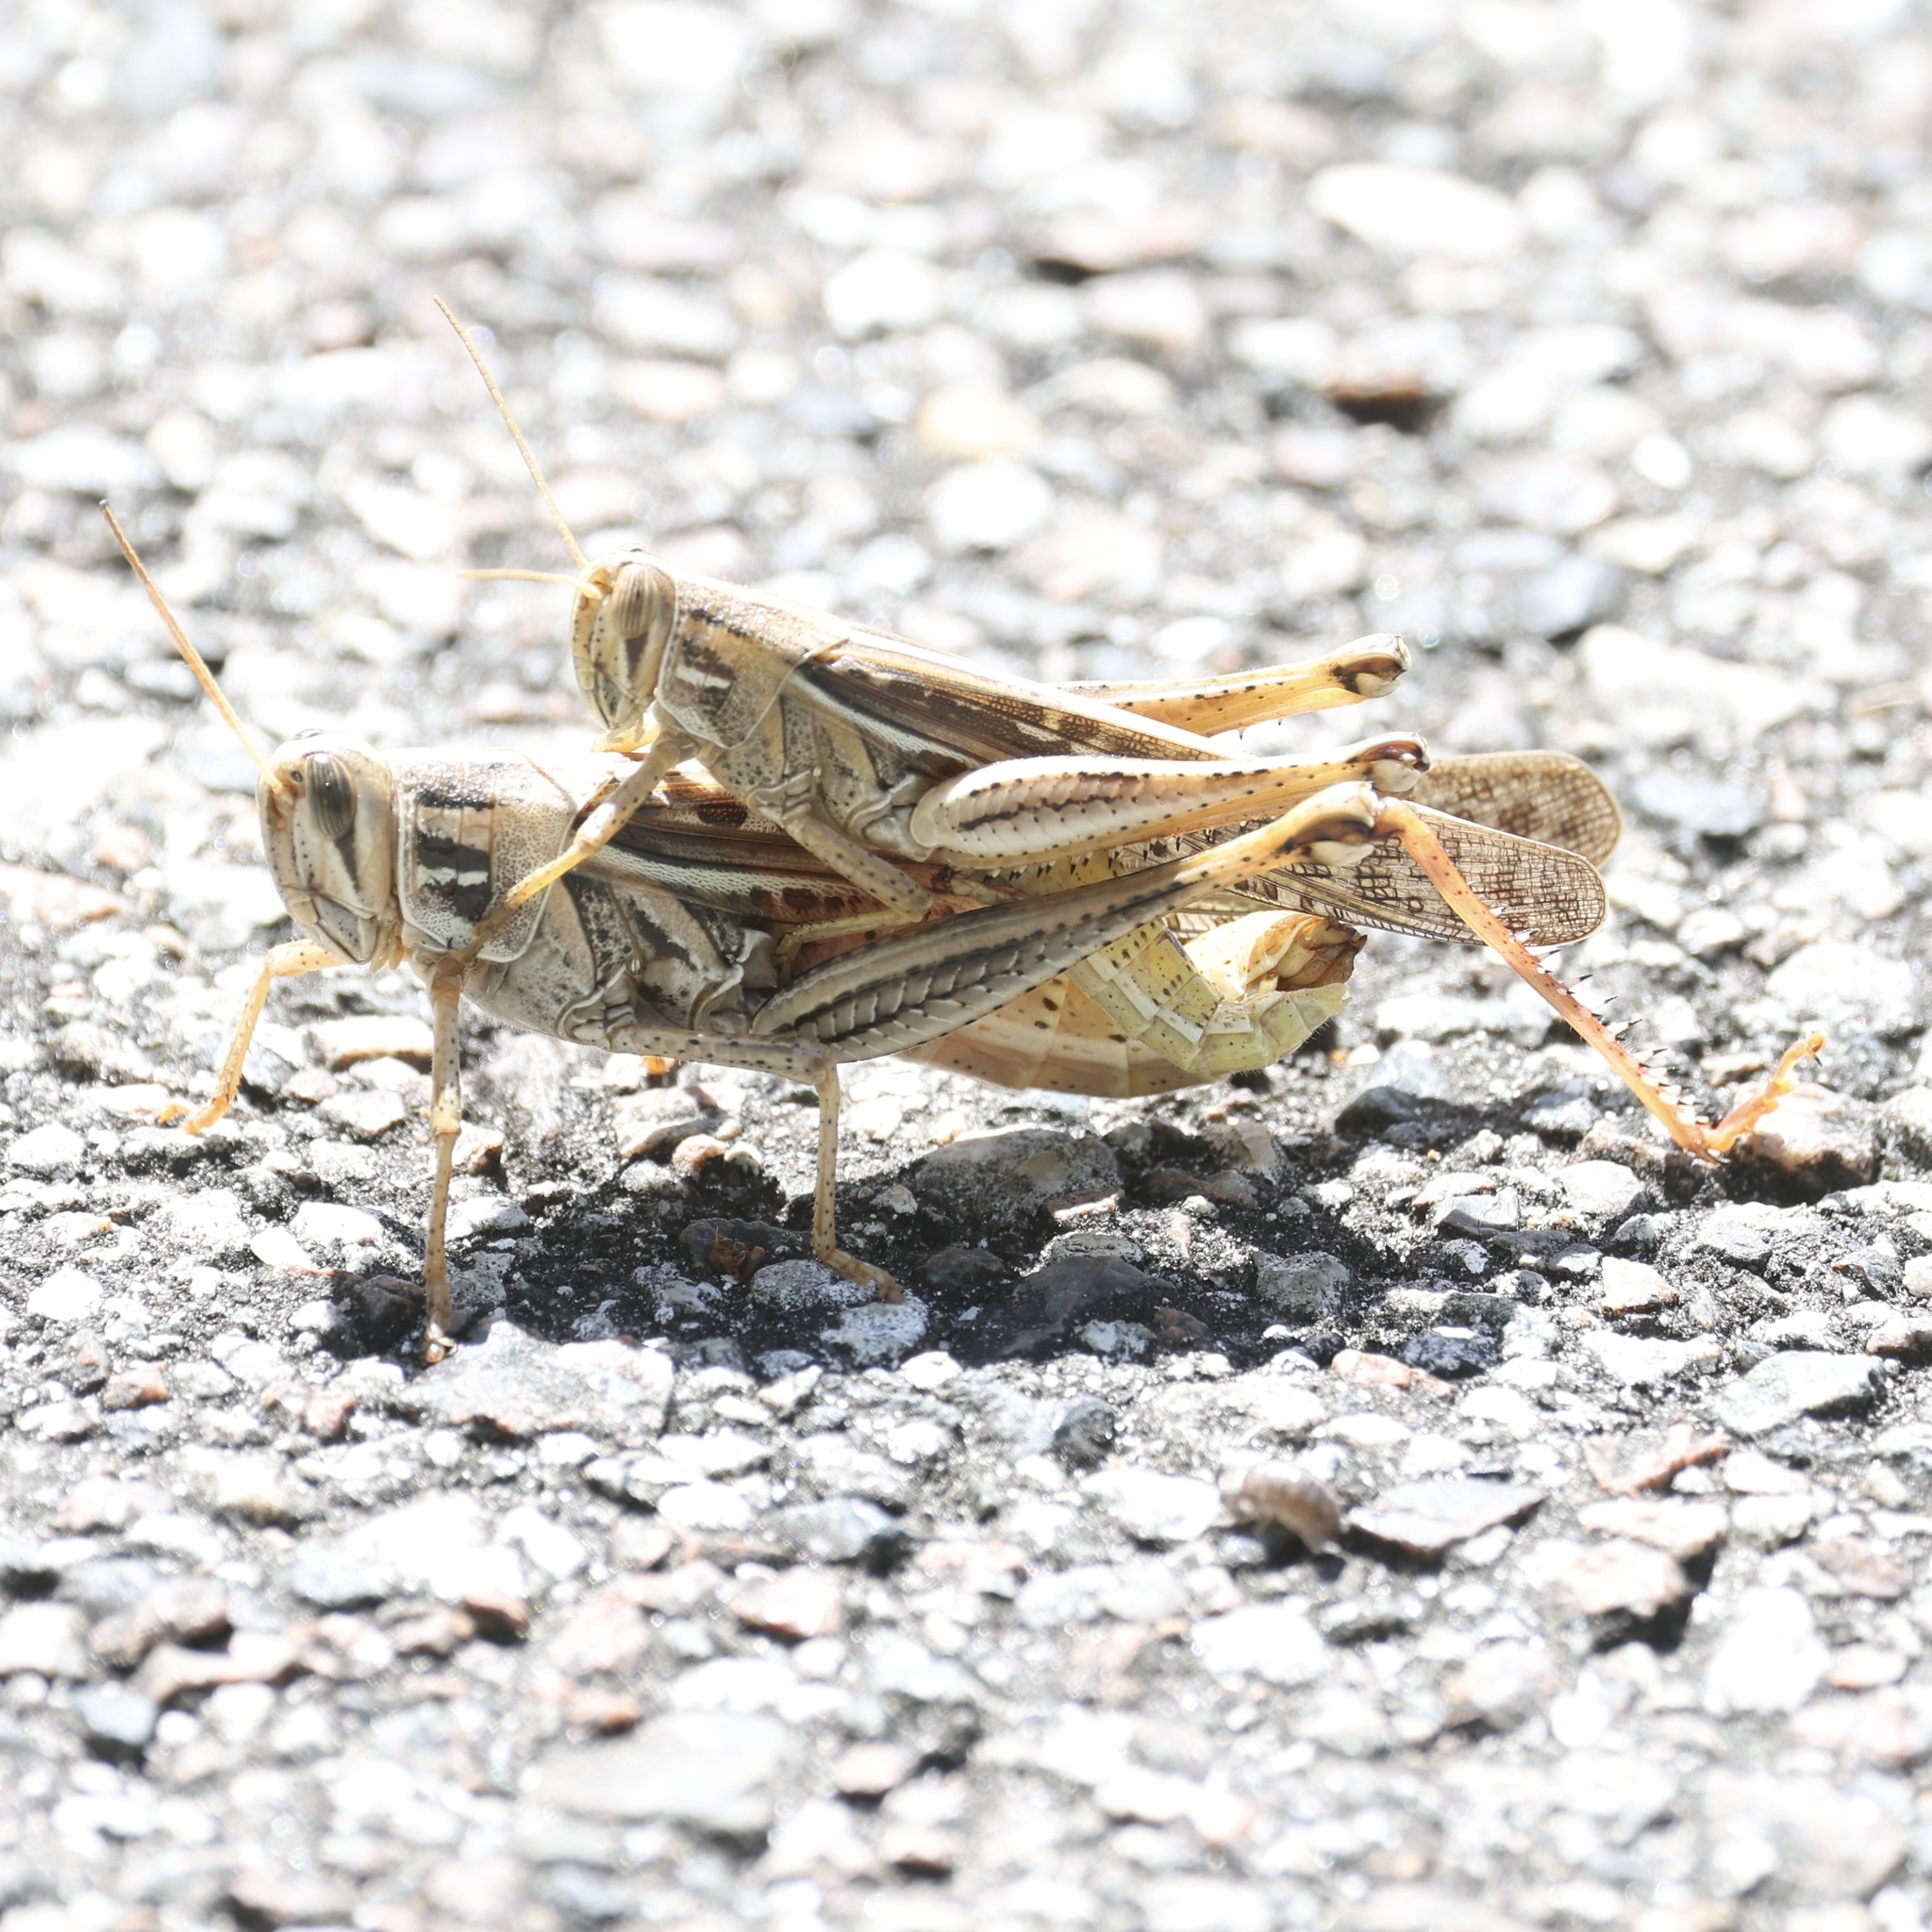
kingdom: Animalia
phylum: Arthropoda
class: Insecta
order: Orthoptera
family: Acrididae
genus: Schistocerca
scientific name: Schistocerca serialis
